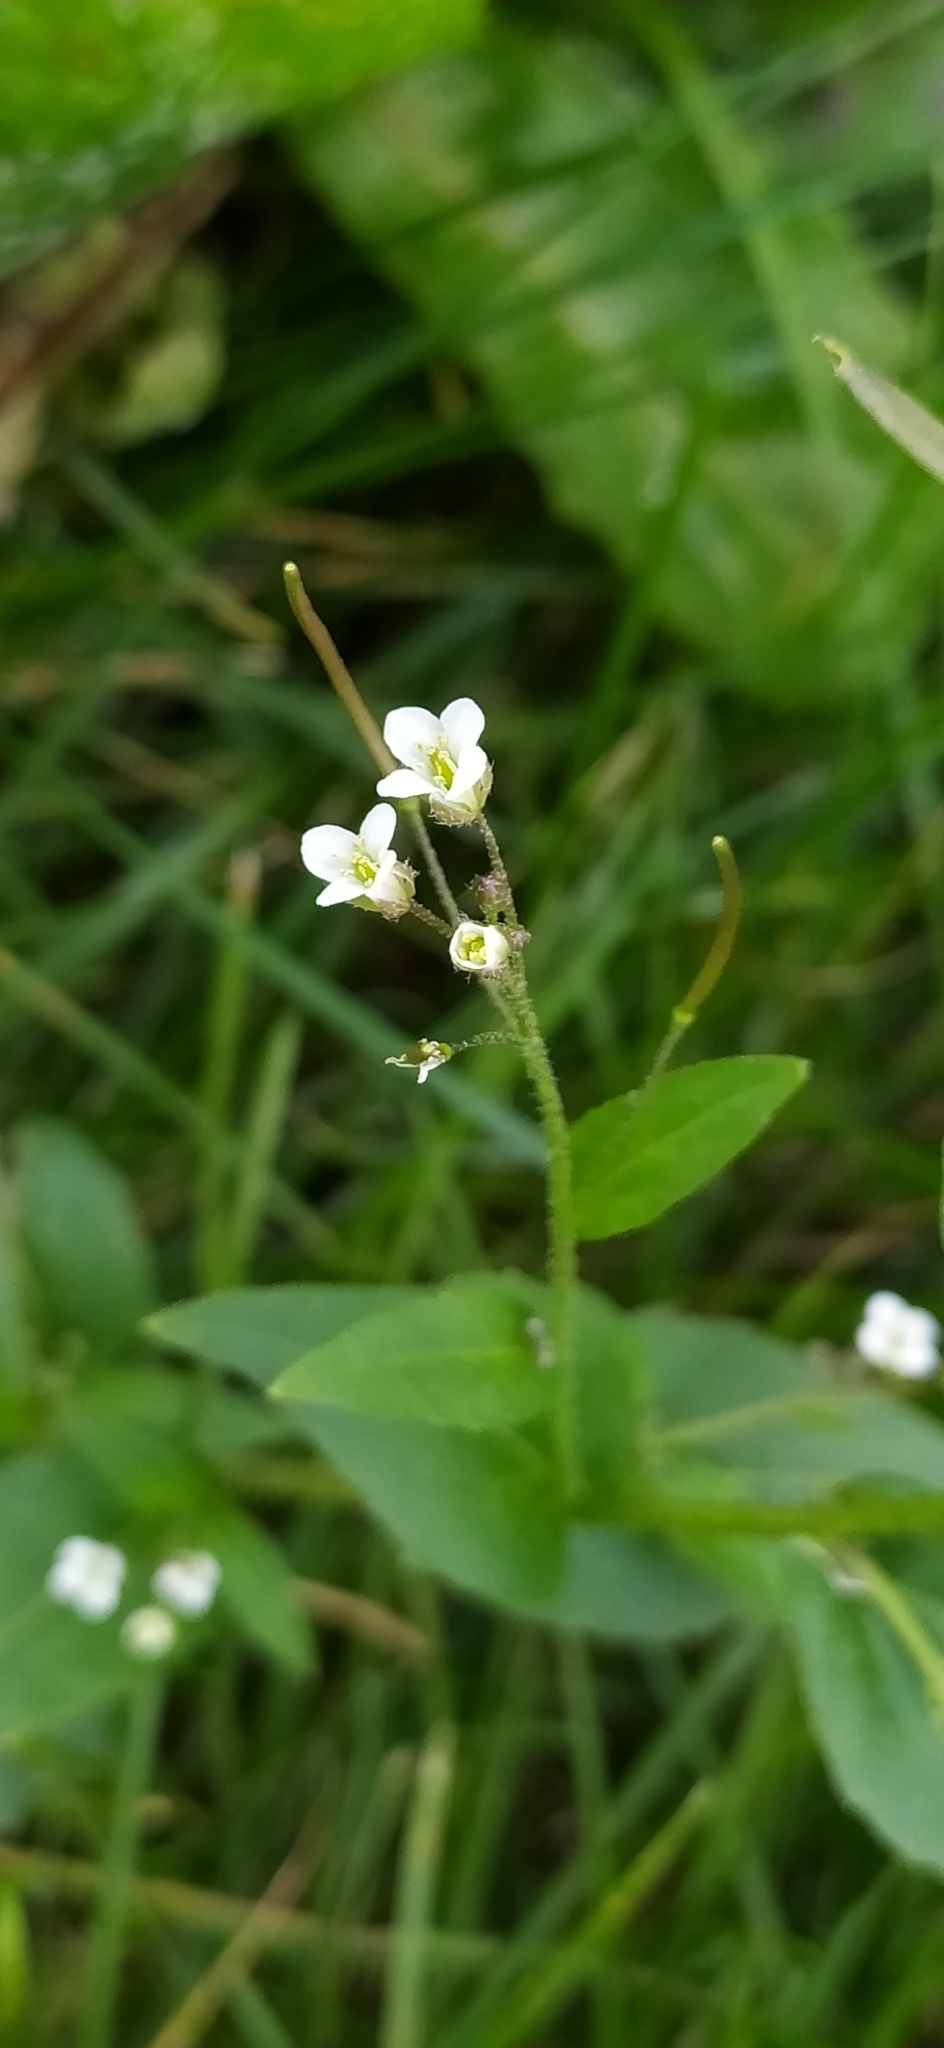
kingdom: Plantae
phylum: Tracheophyta
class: Magnoliopsida
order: Brassicales
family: Brassicaceae
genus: Catolobus
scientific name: Catolobus pendulus
